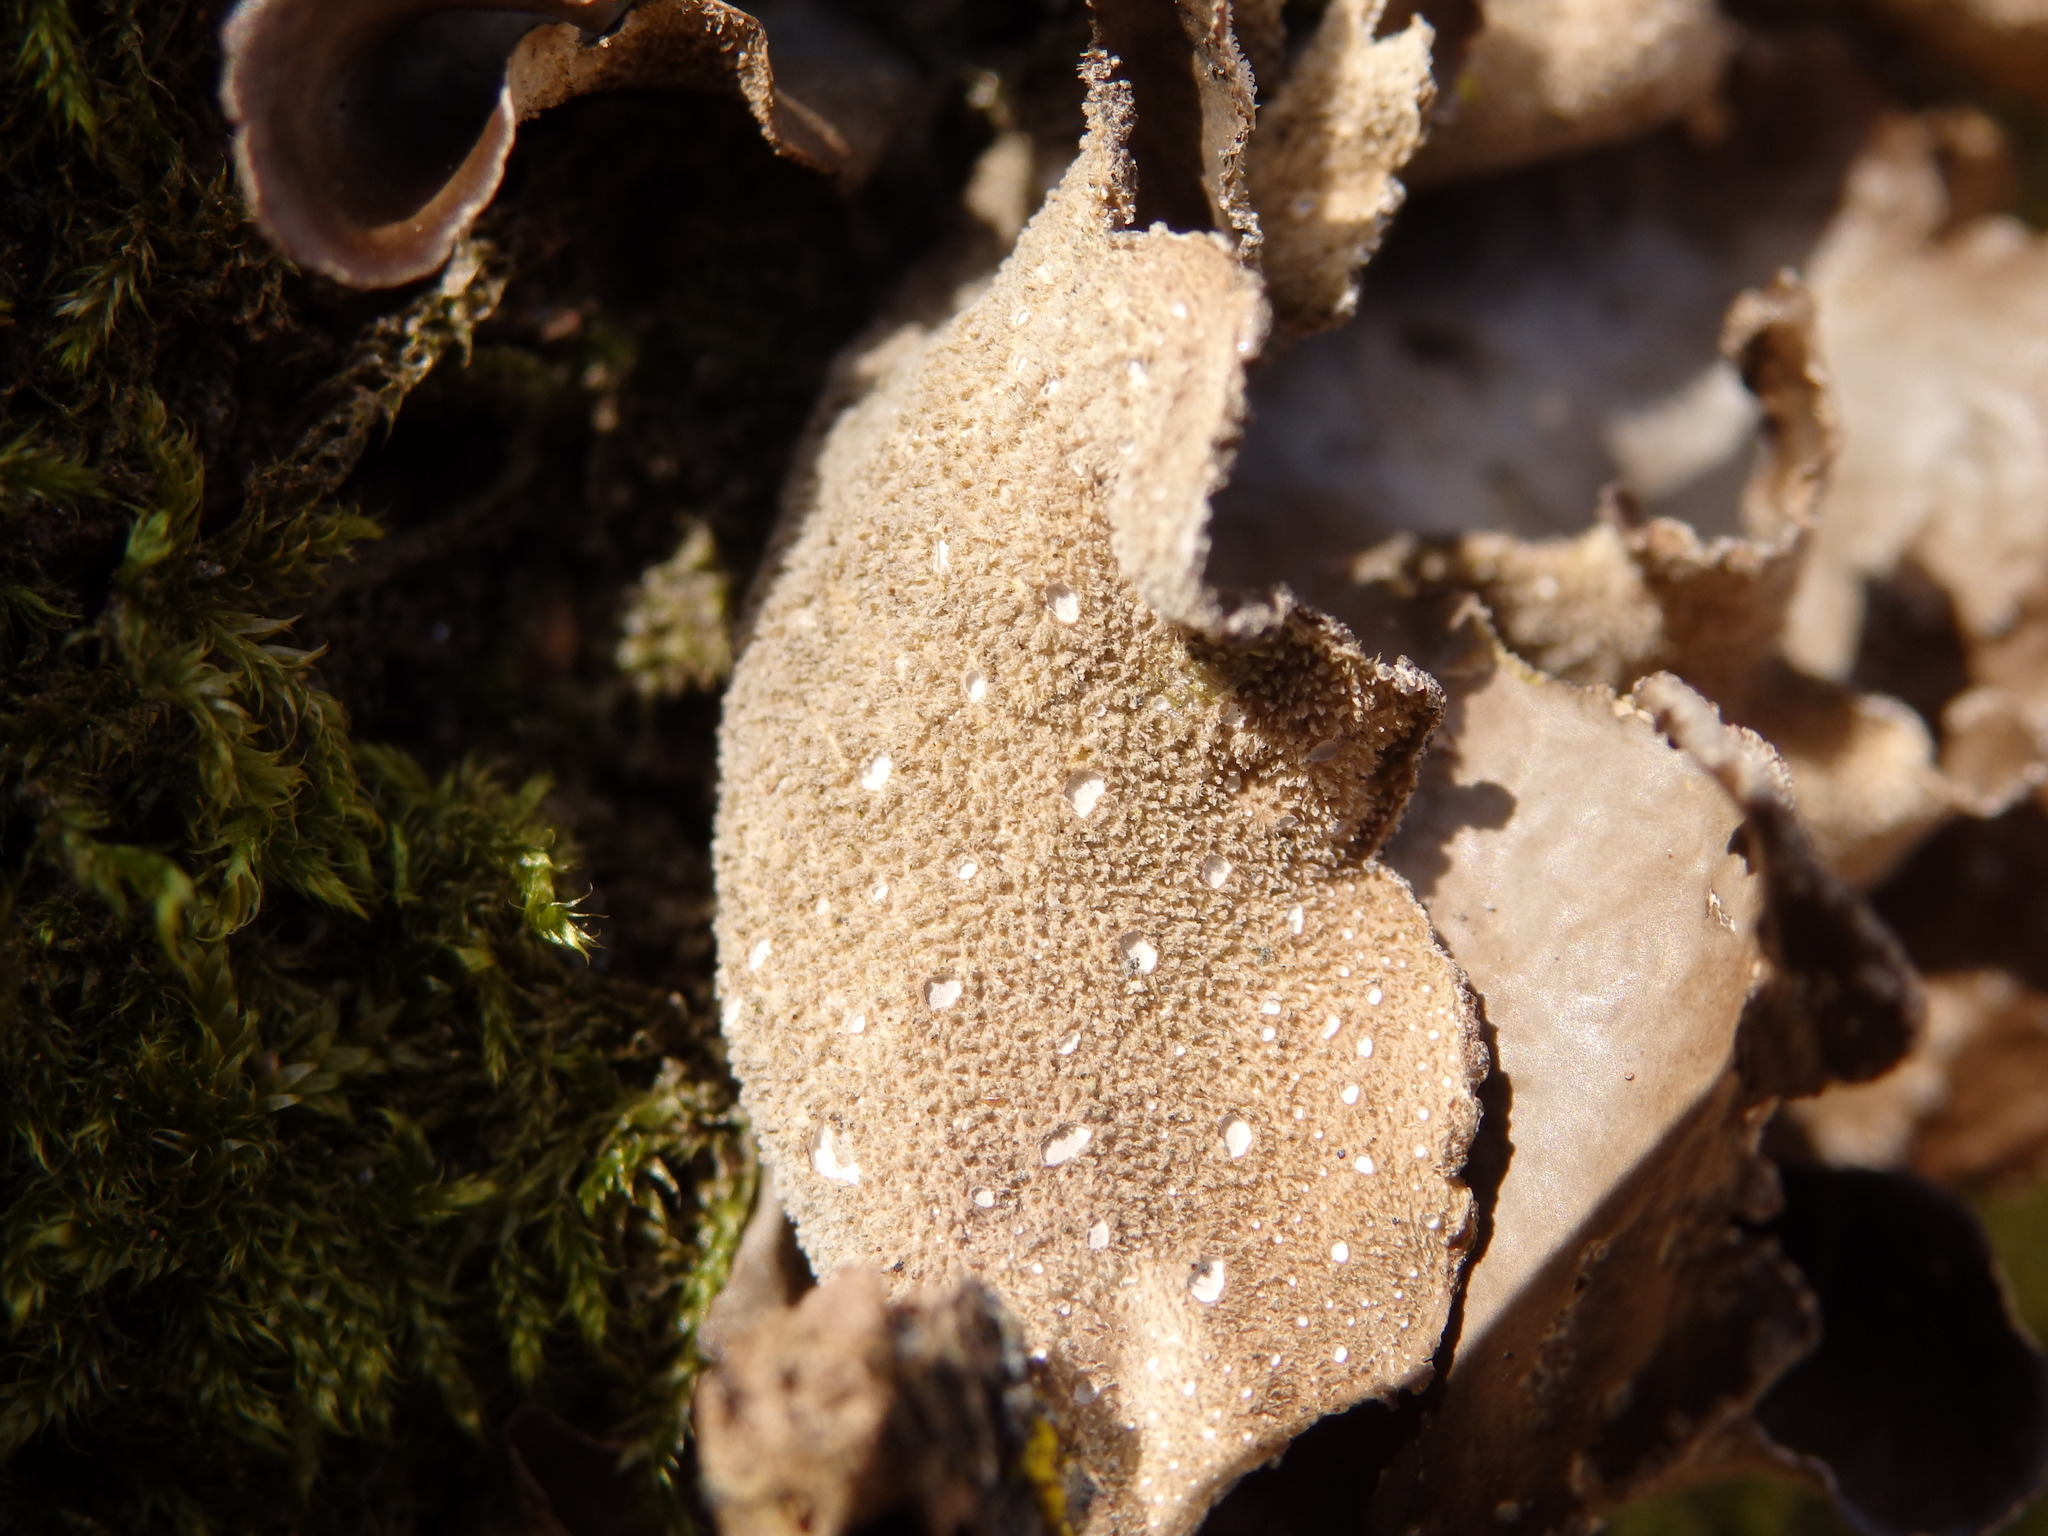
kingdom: Fungi
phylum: Ascomycota
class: Lecanoromycetes
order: Peltigerales
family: Lobariaceae
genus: Sticta
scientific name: Sticta limbata
